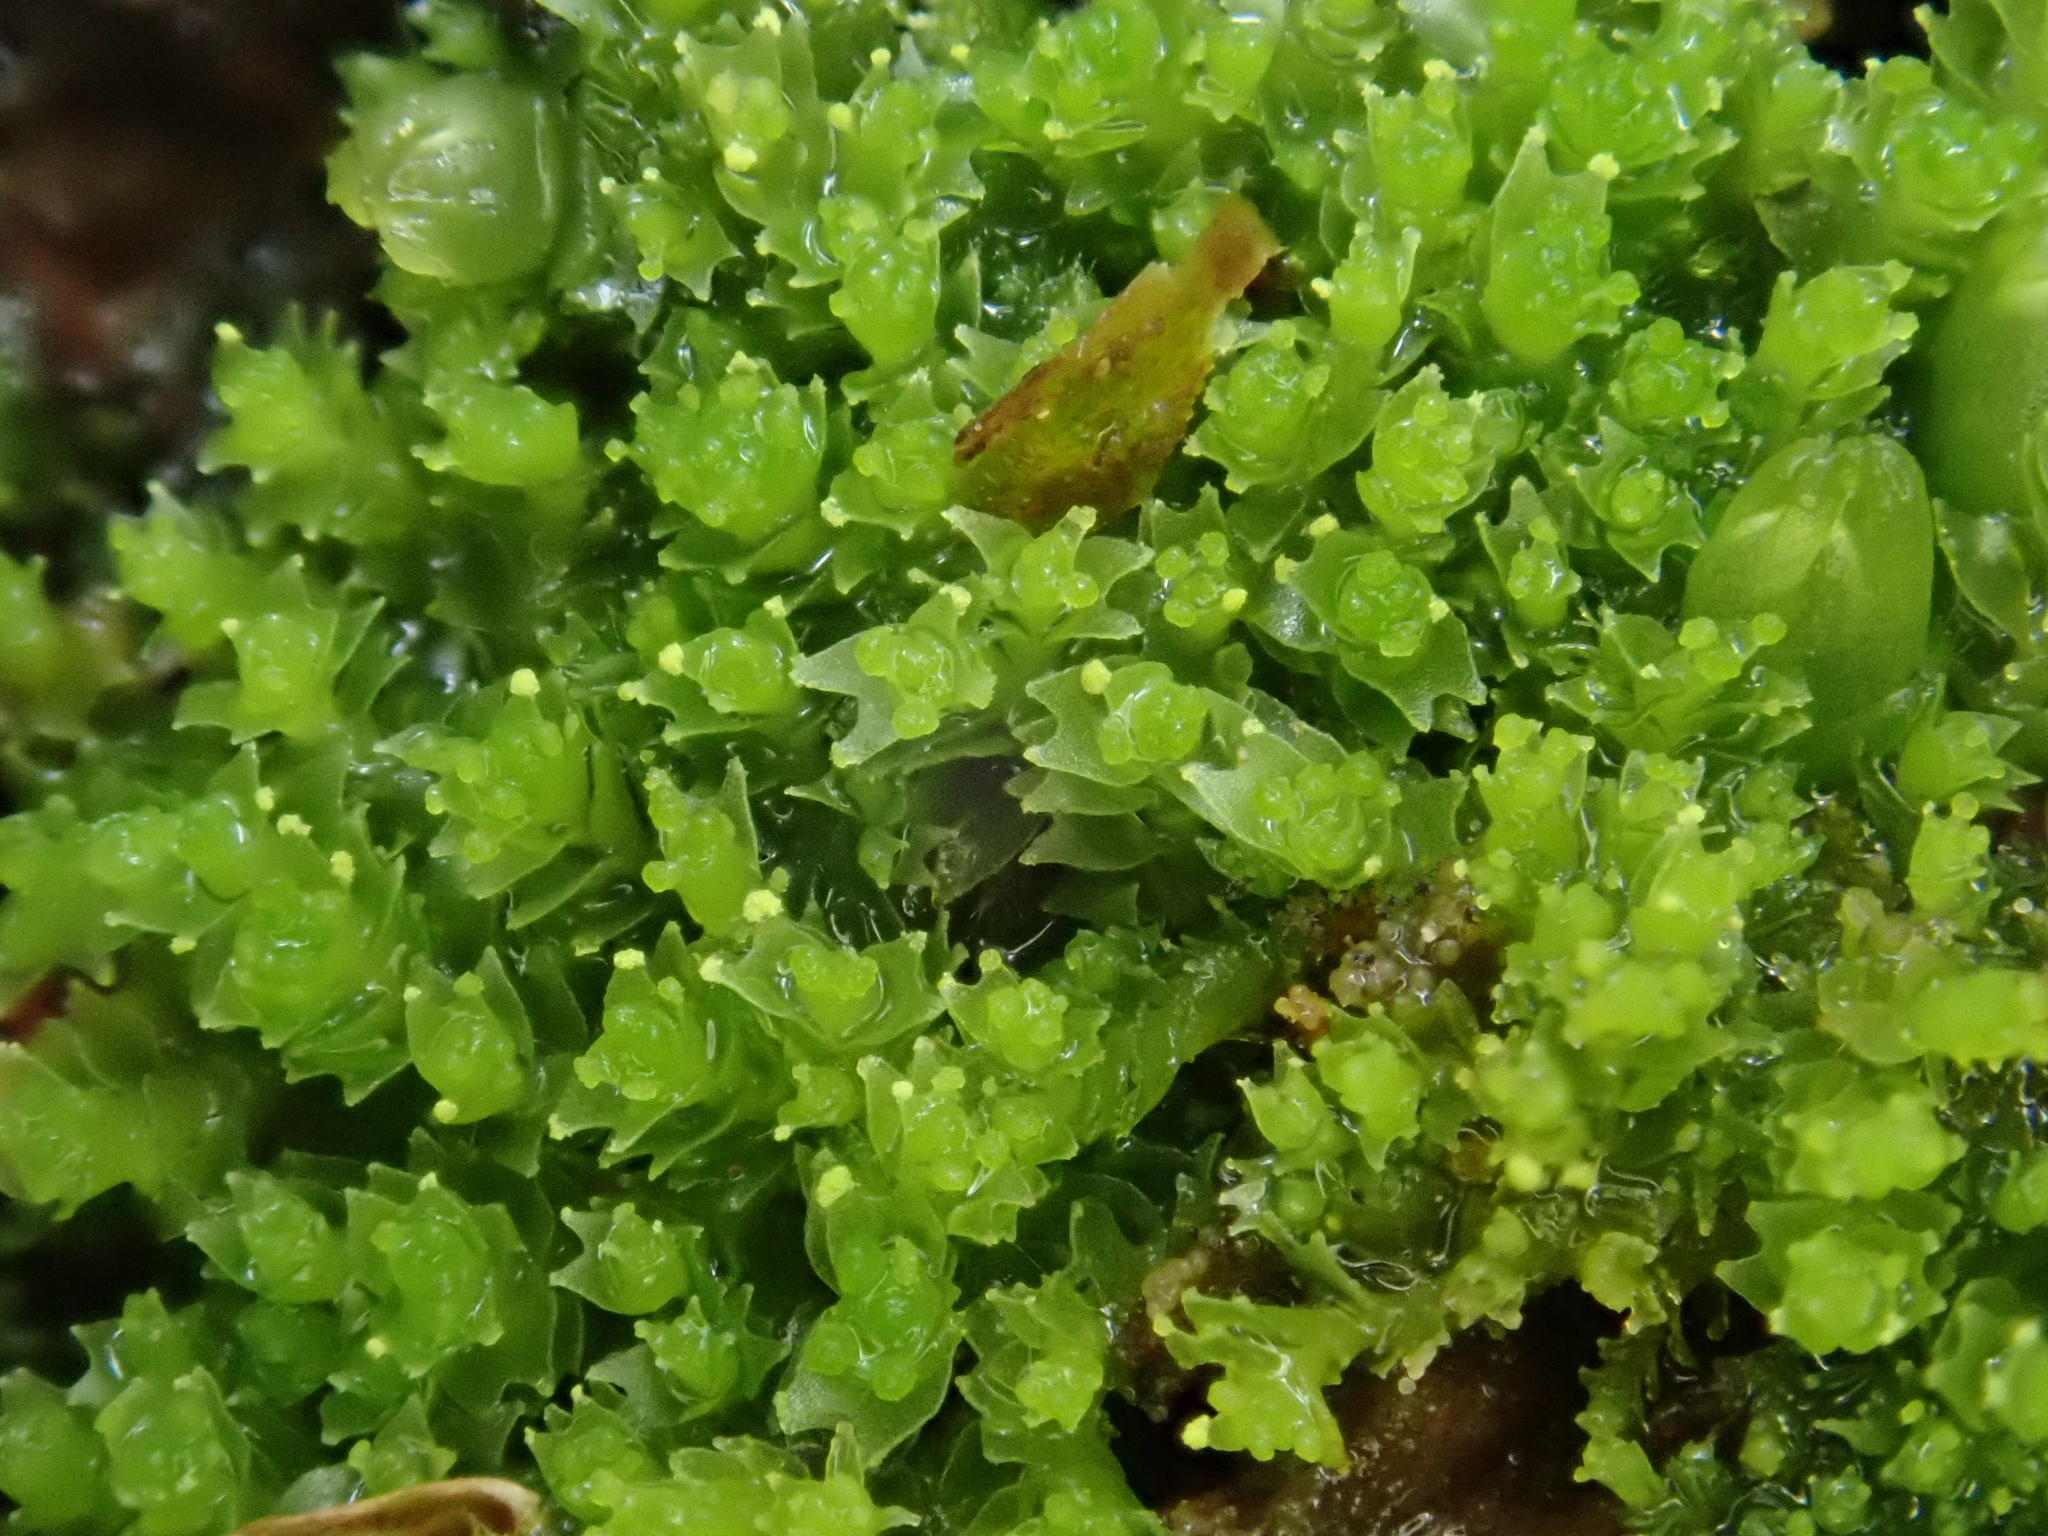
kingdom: Plantae
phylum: Marchantiophyta
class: Jungermanniopsida
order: Jungermanniales
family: Lophoziaceae
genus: Lophozia
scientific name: Lophozia ventricosa
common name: Tumid notchwort
